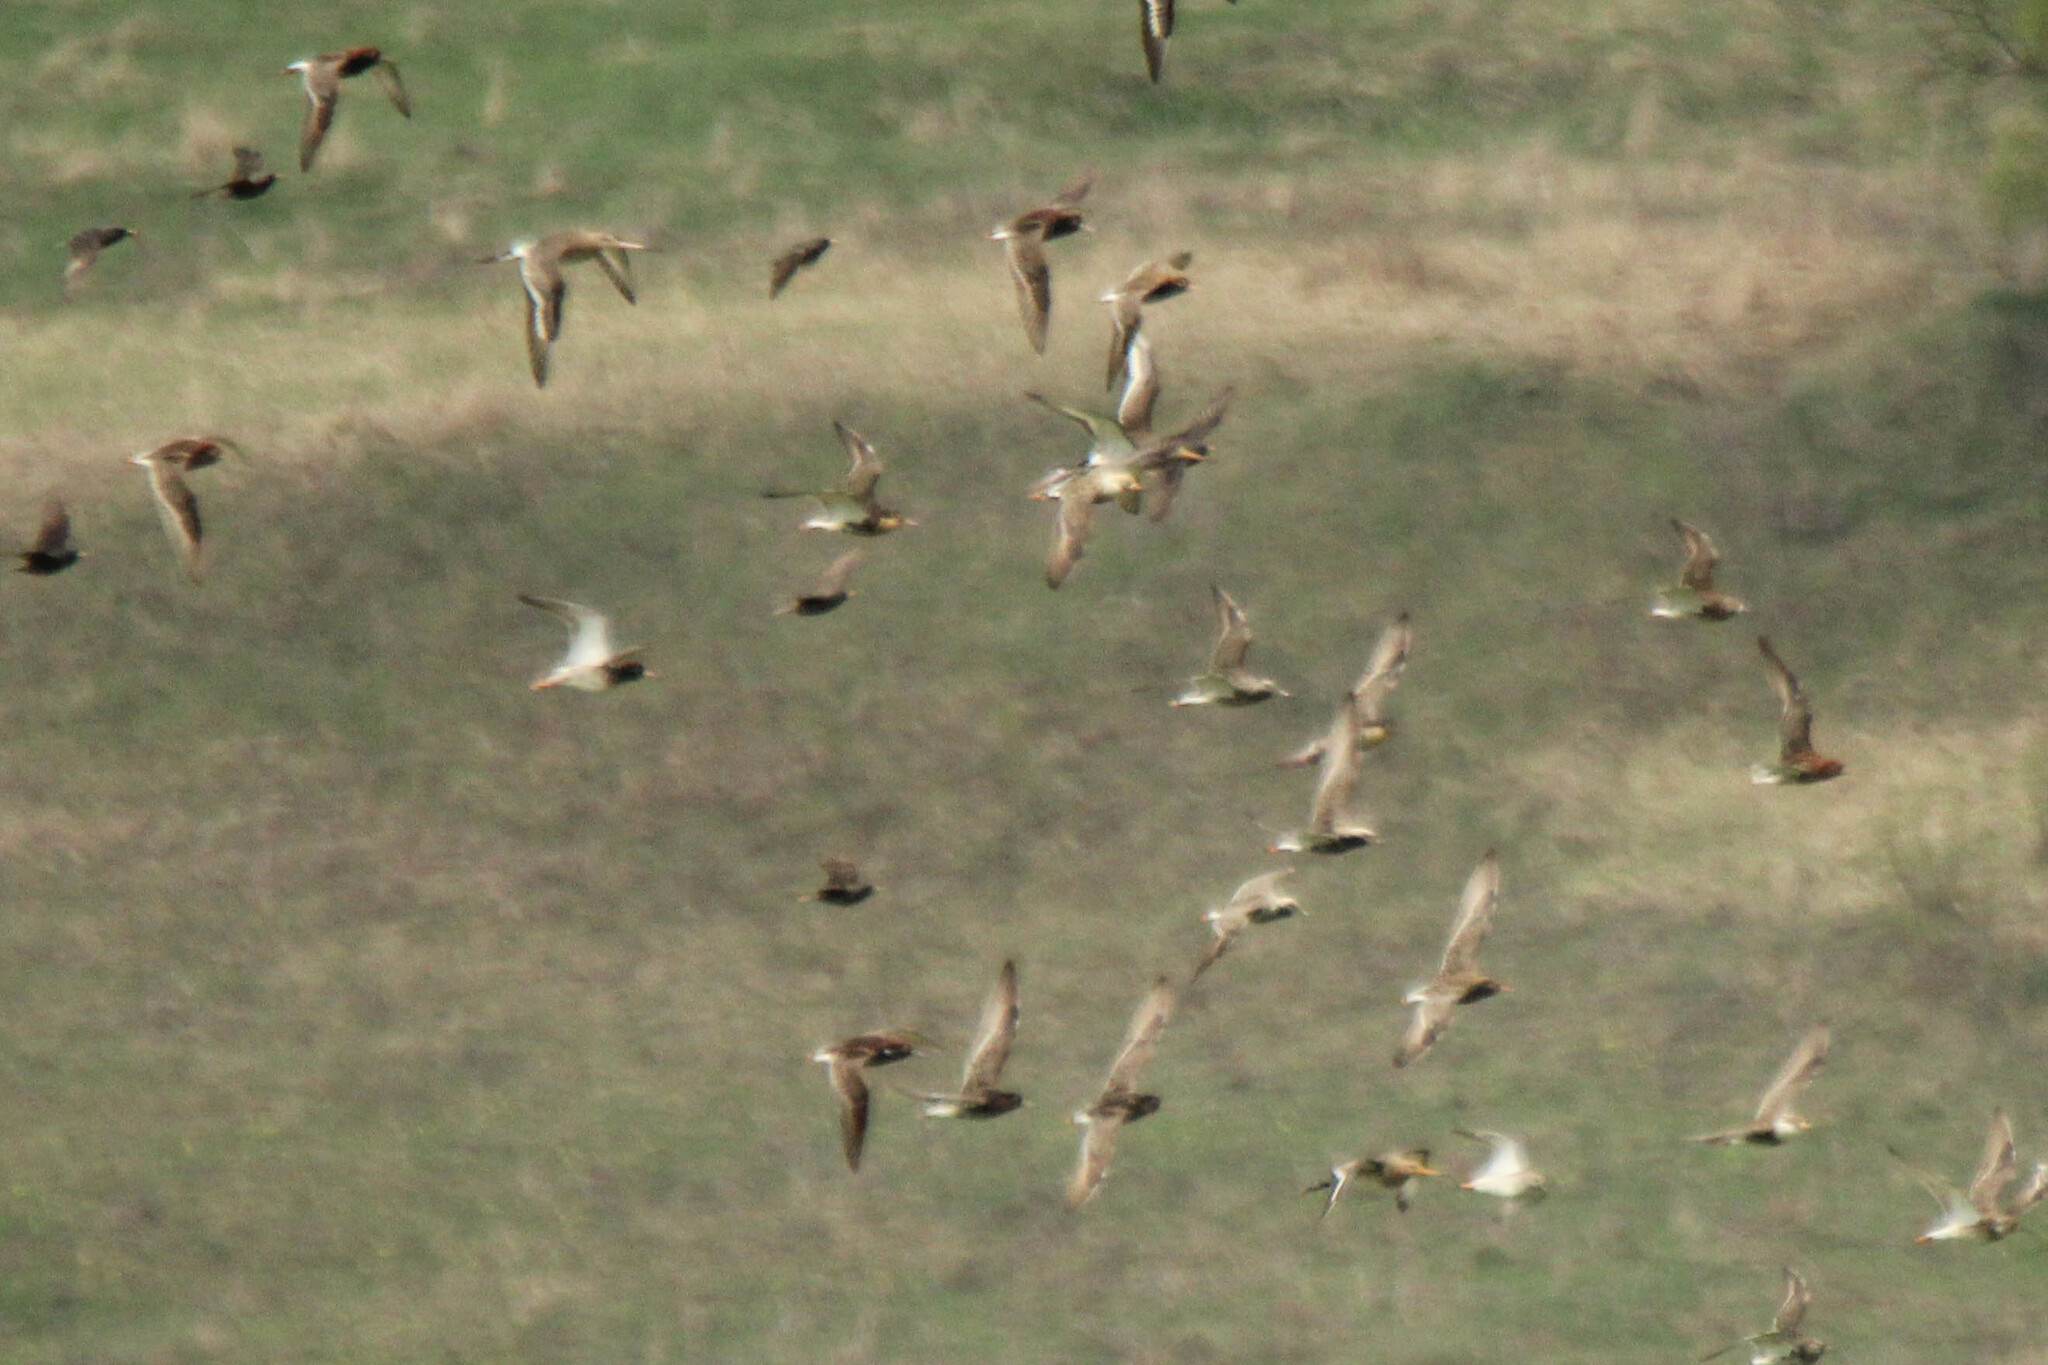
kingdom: Animalia
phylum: Chordata
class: Aves
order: Charadriiformes
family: Scolopacidae
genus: Calidris
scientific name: Calidris pugnax
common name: Ruff
